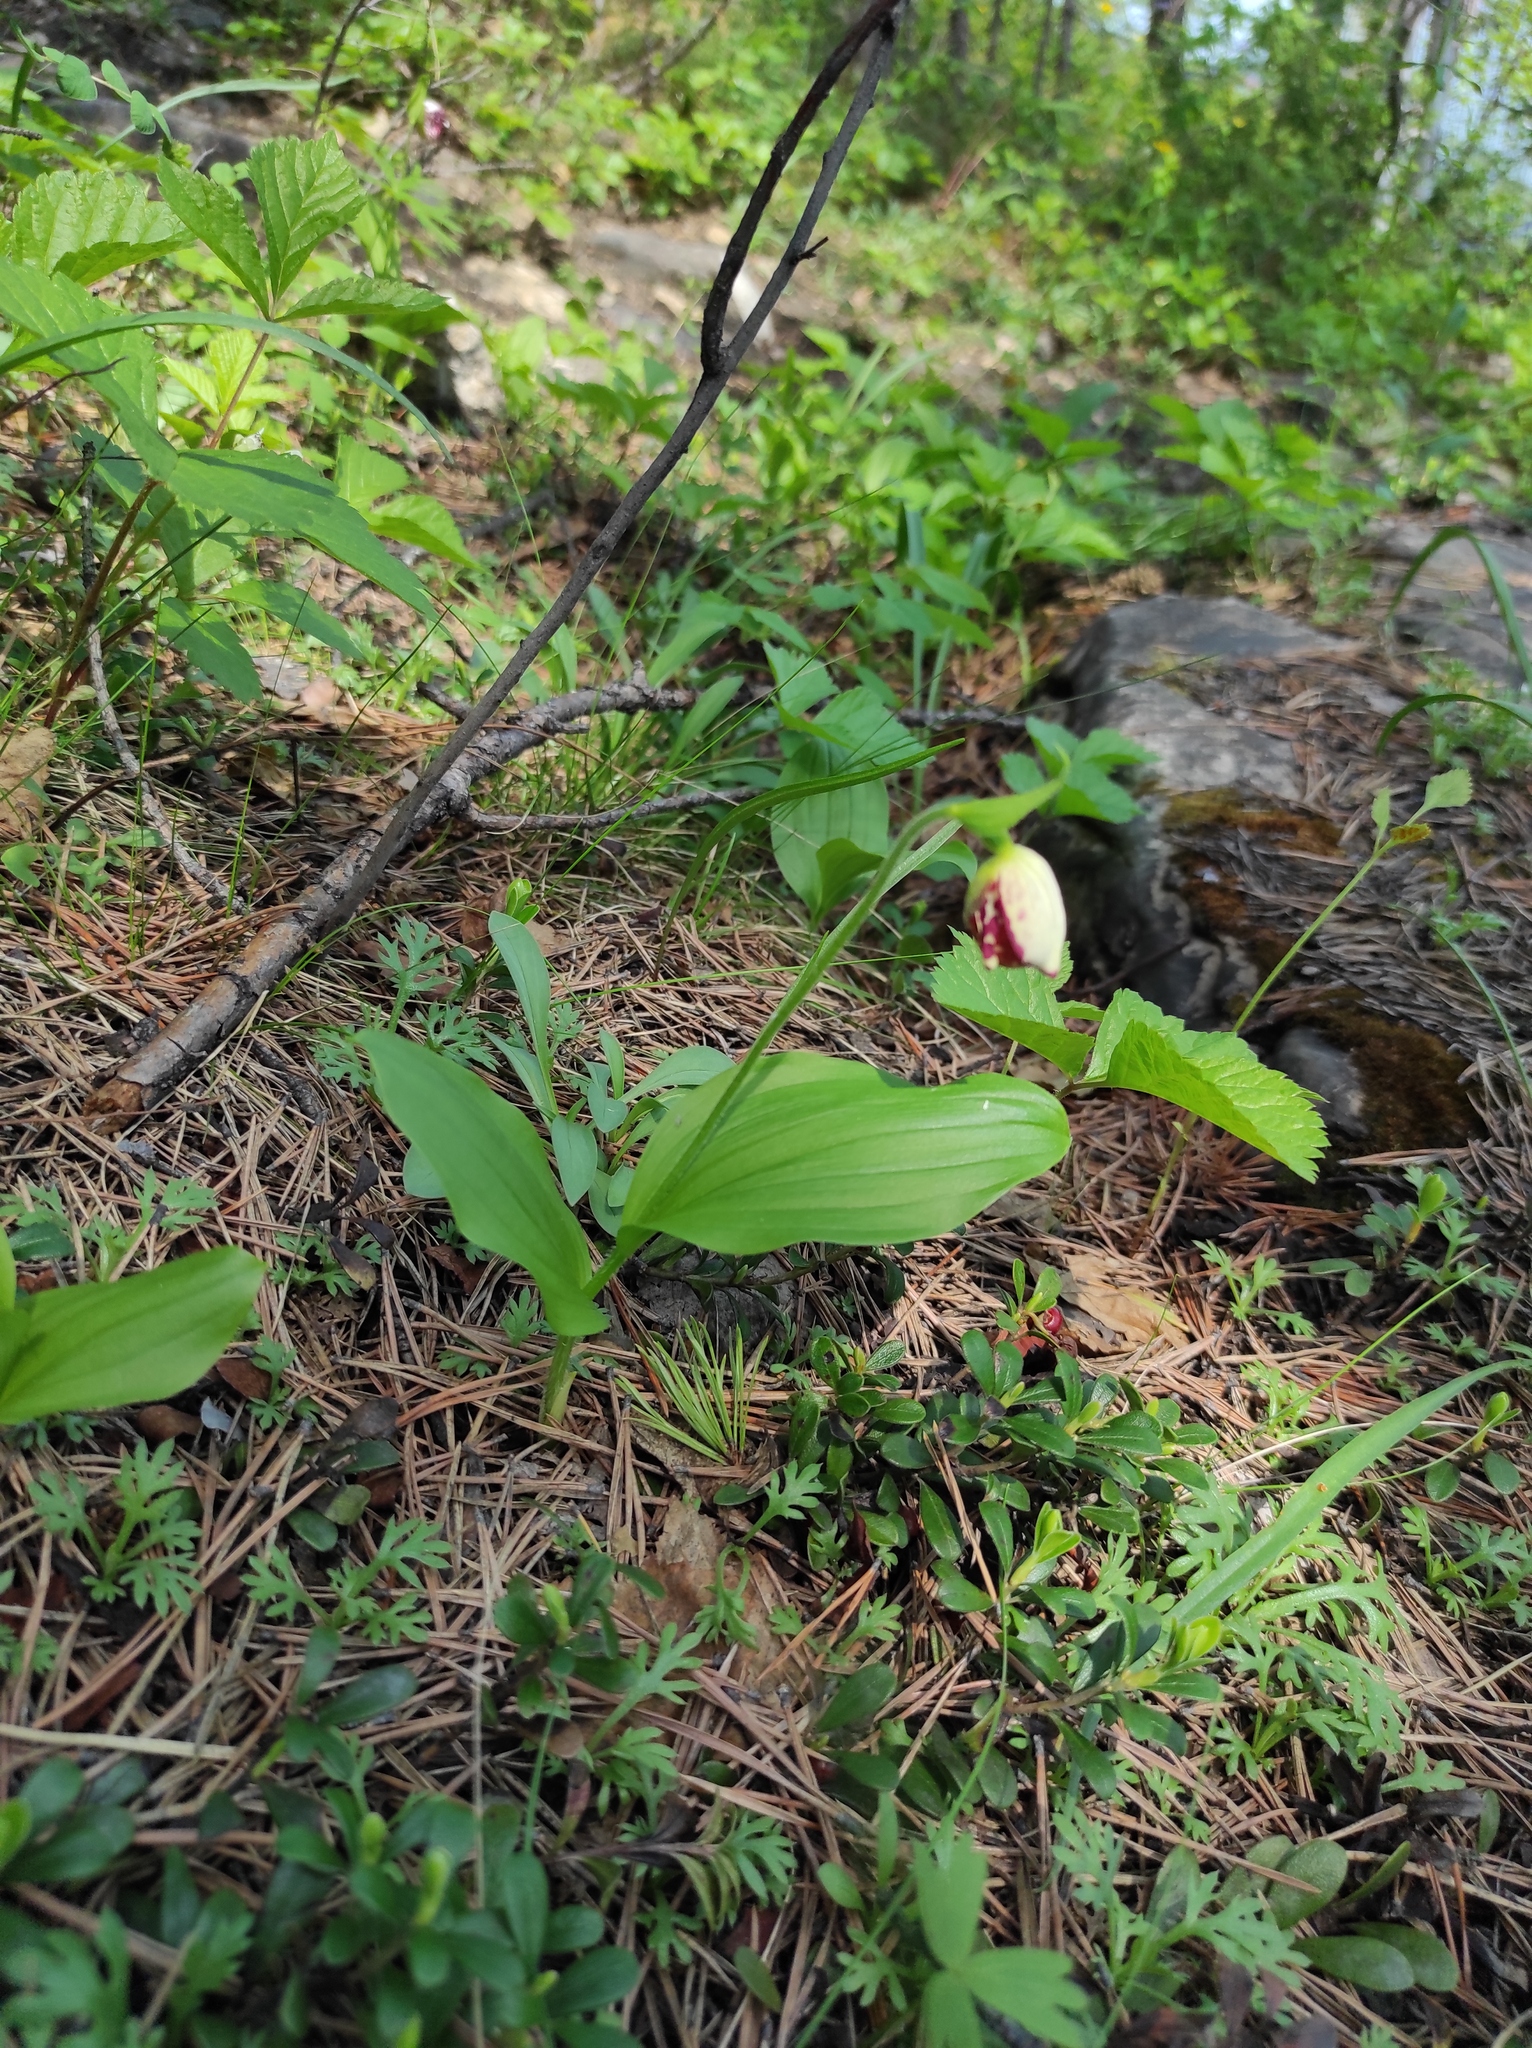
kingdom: Plantae
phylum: Tracheophyta
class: Liliopsida
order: Asparagales
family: Orchidaceae
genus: Cypripedium
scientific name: Cypripedium guttatum
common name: Pink lady slipper
